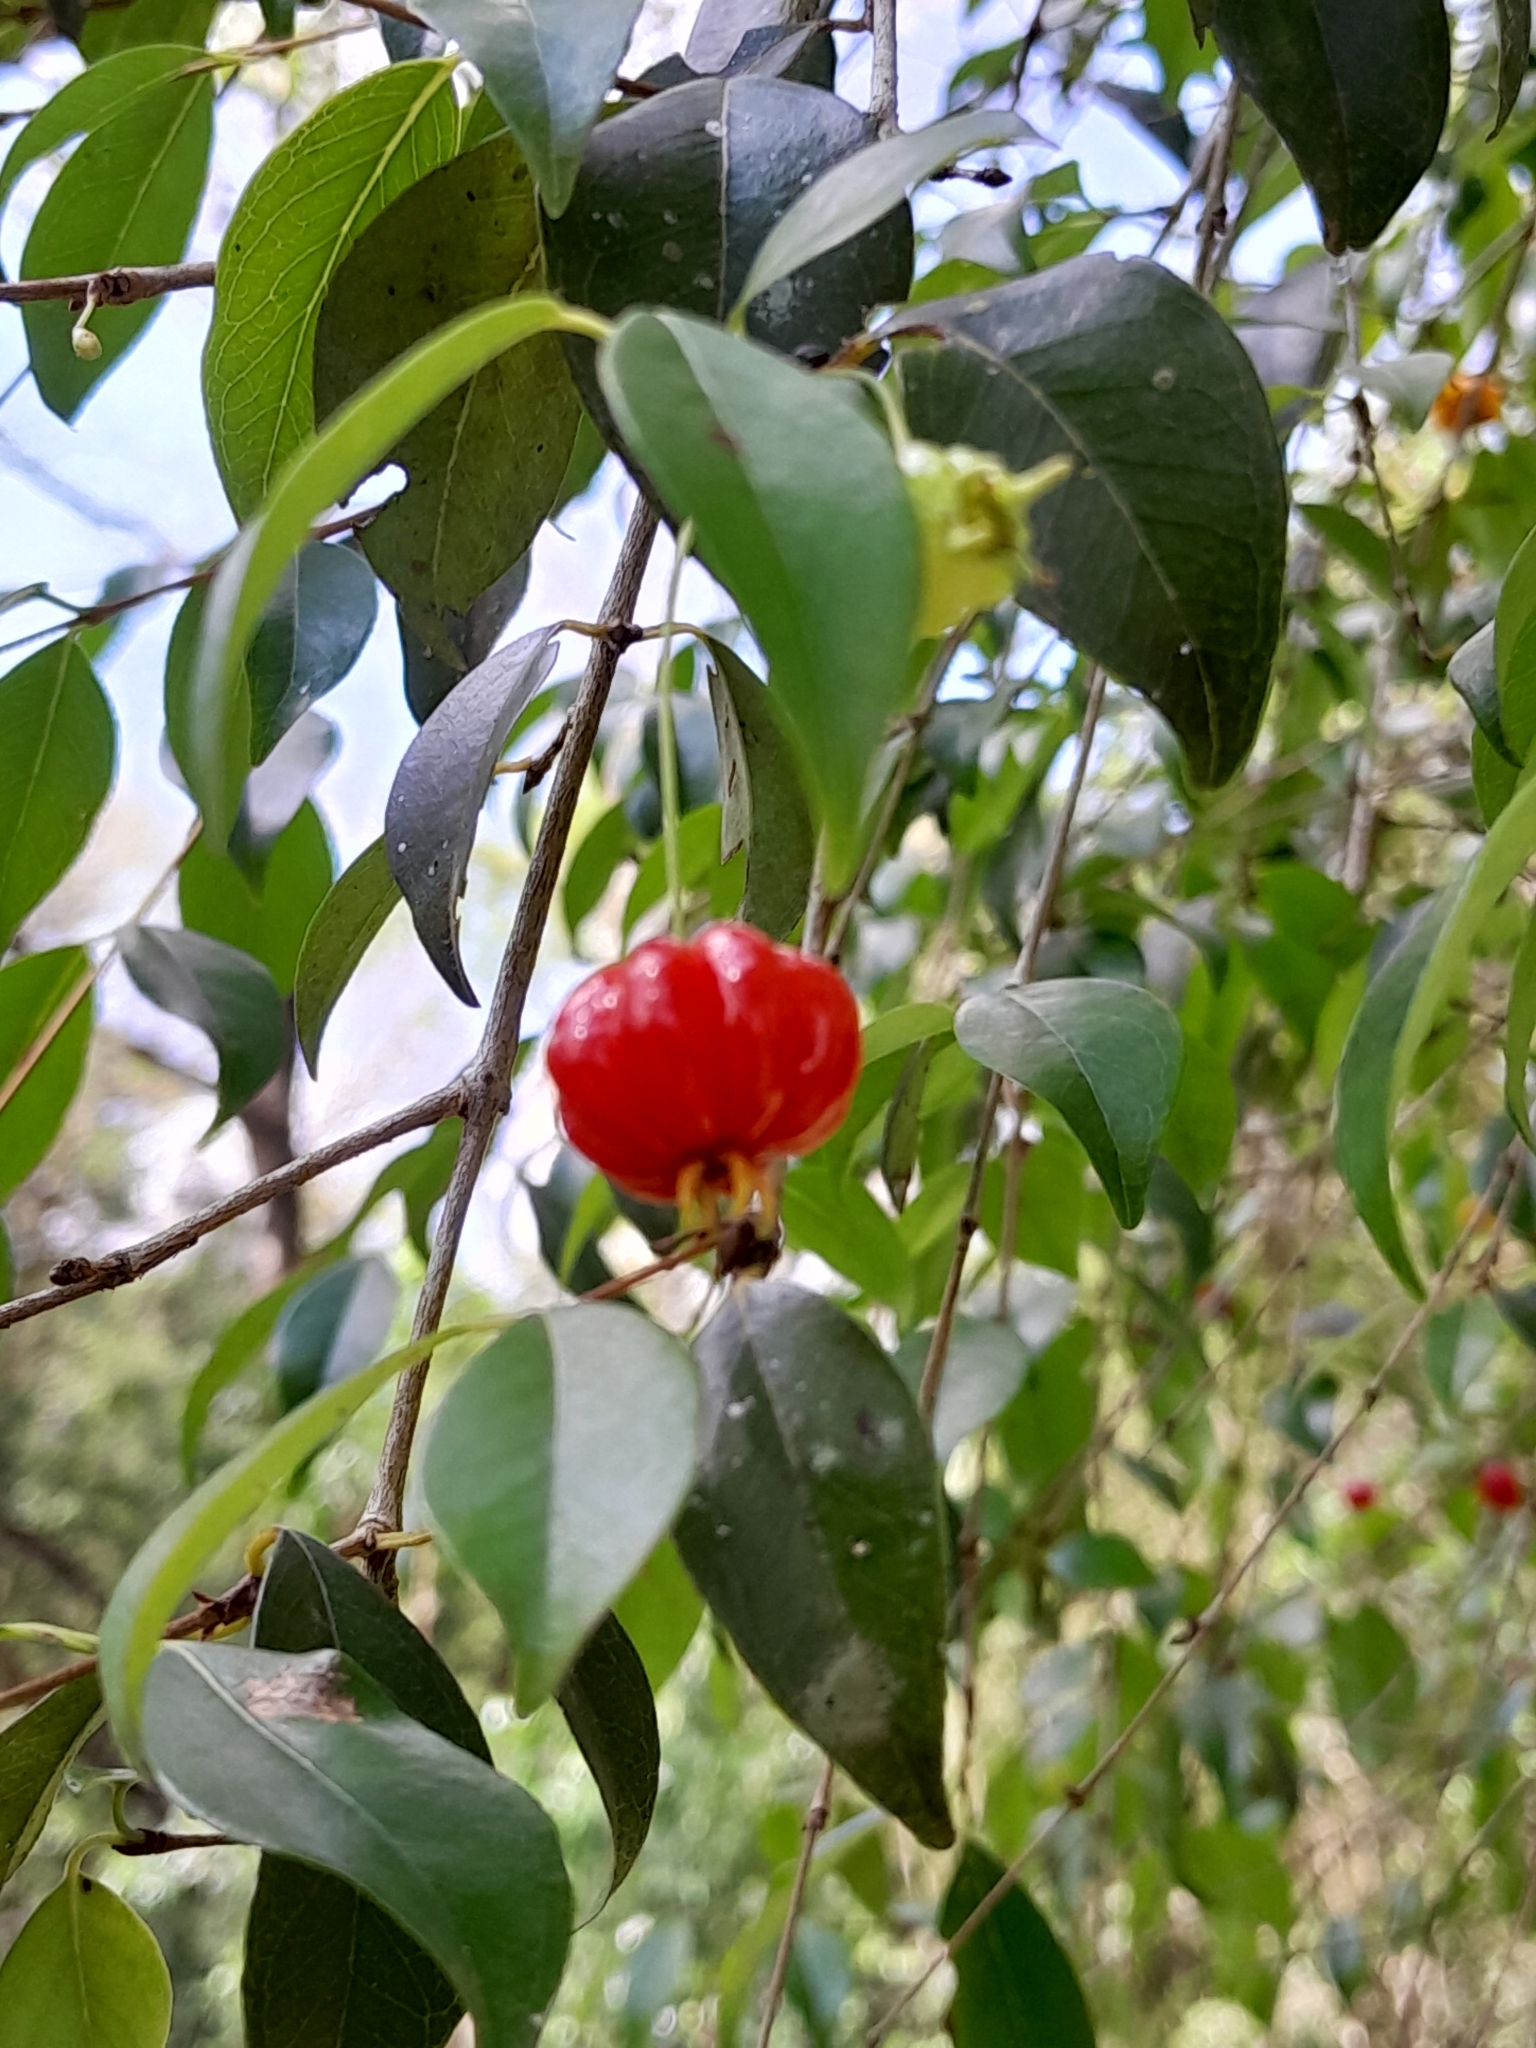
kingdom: Plantae
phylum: Tracheophyta
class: Magnoliopsida
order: Myrtales
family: Myrtaceae
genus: Eugenia
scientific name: Eugenia uniflora
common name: Surinam cherry
